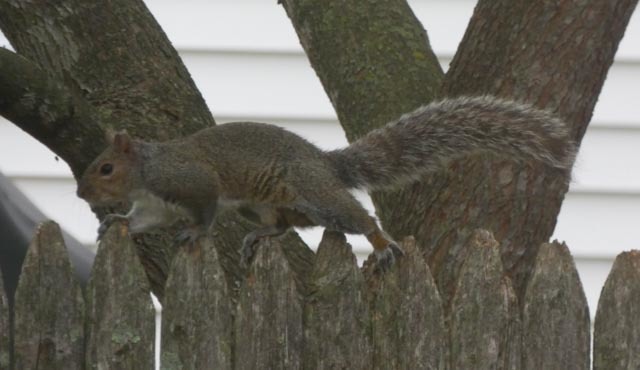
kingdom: Animalia
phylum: Chordata
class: Mammalia
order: Rodentia
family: Sciuridae
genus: Sciurus
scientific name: Sciurus carolinensis
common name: Eastern gray squirrel
